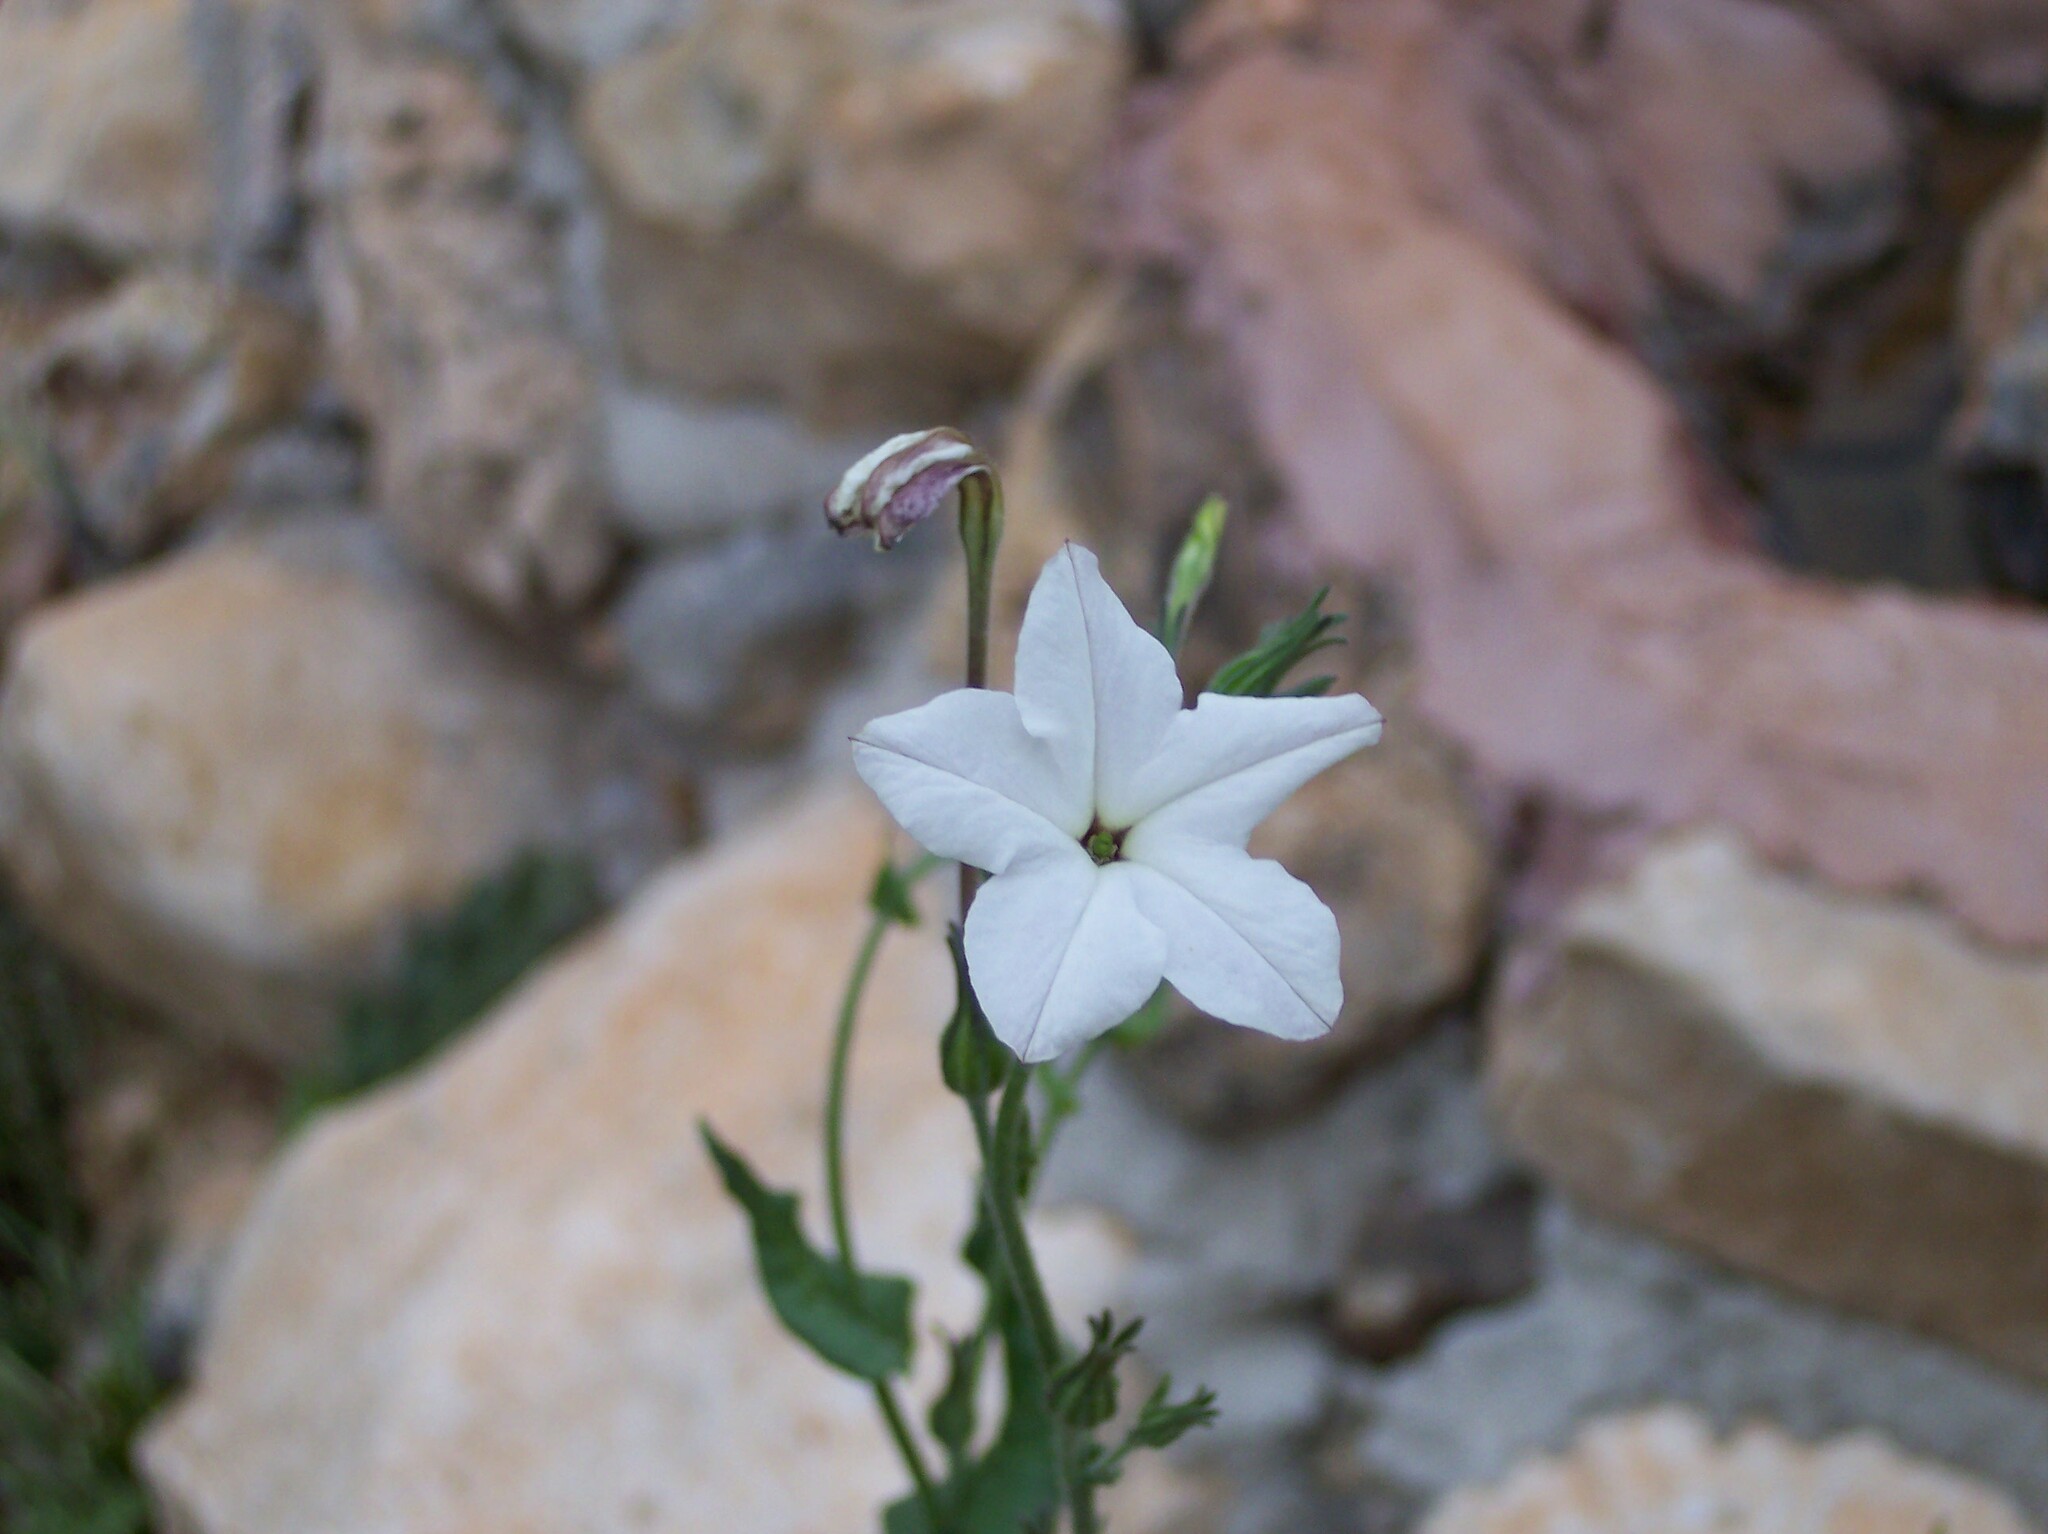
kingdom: Plantae
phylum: Tracheophyta
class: Magnoliopsida
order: Solanales
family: Solanaceae
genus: Nicotiana
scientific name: Nicotiana repanda
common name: Fiddle-leaf tobacco
